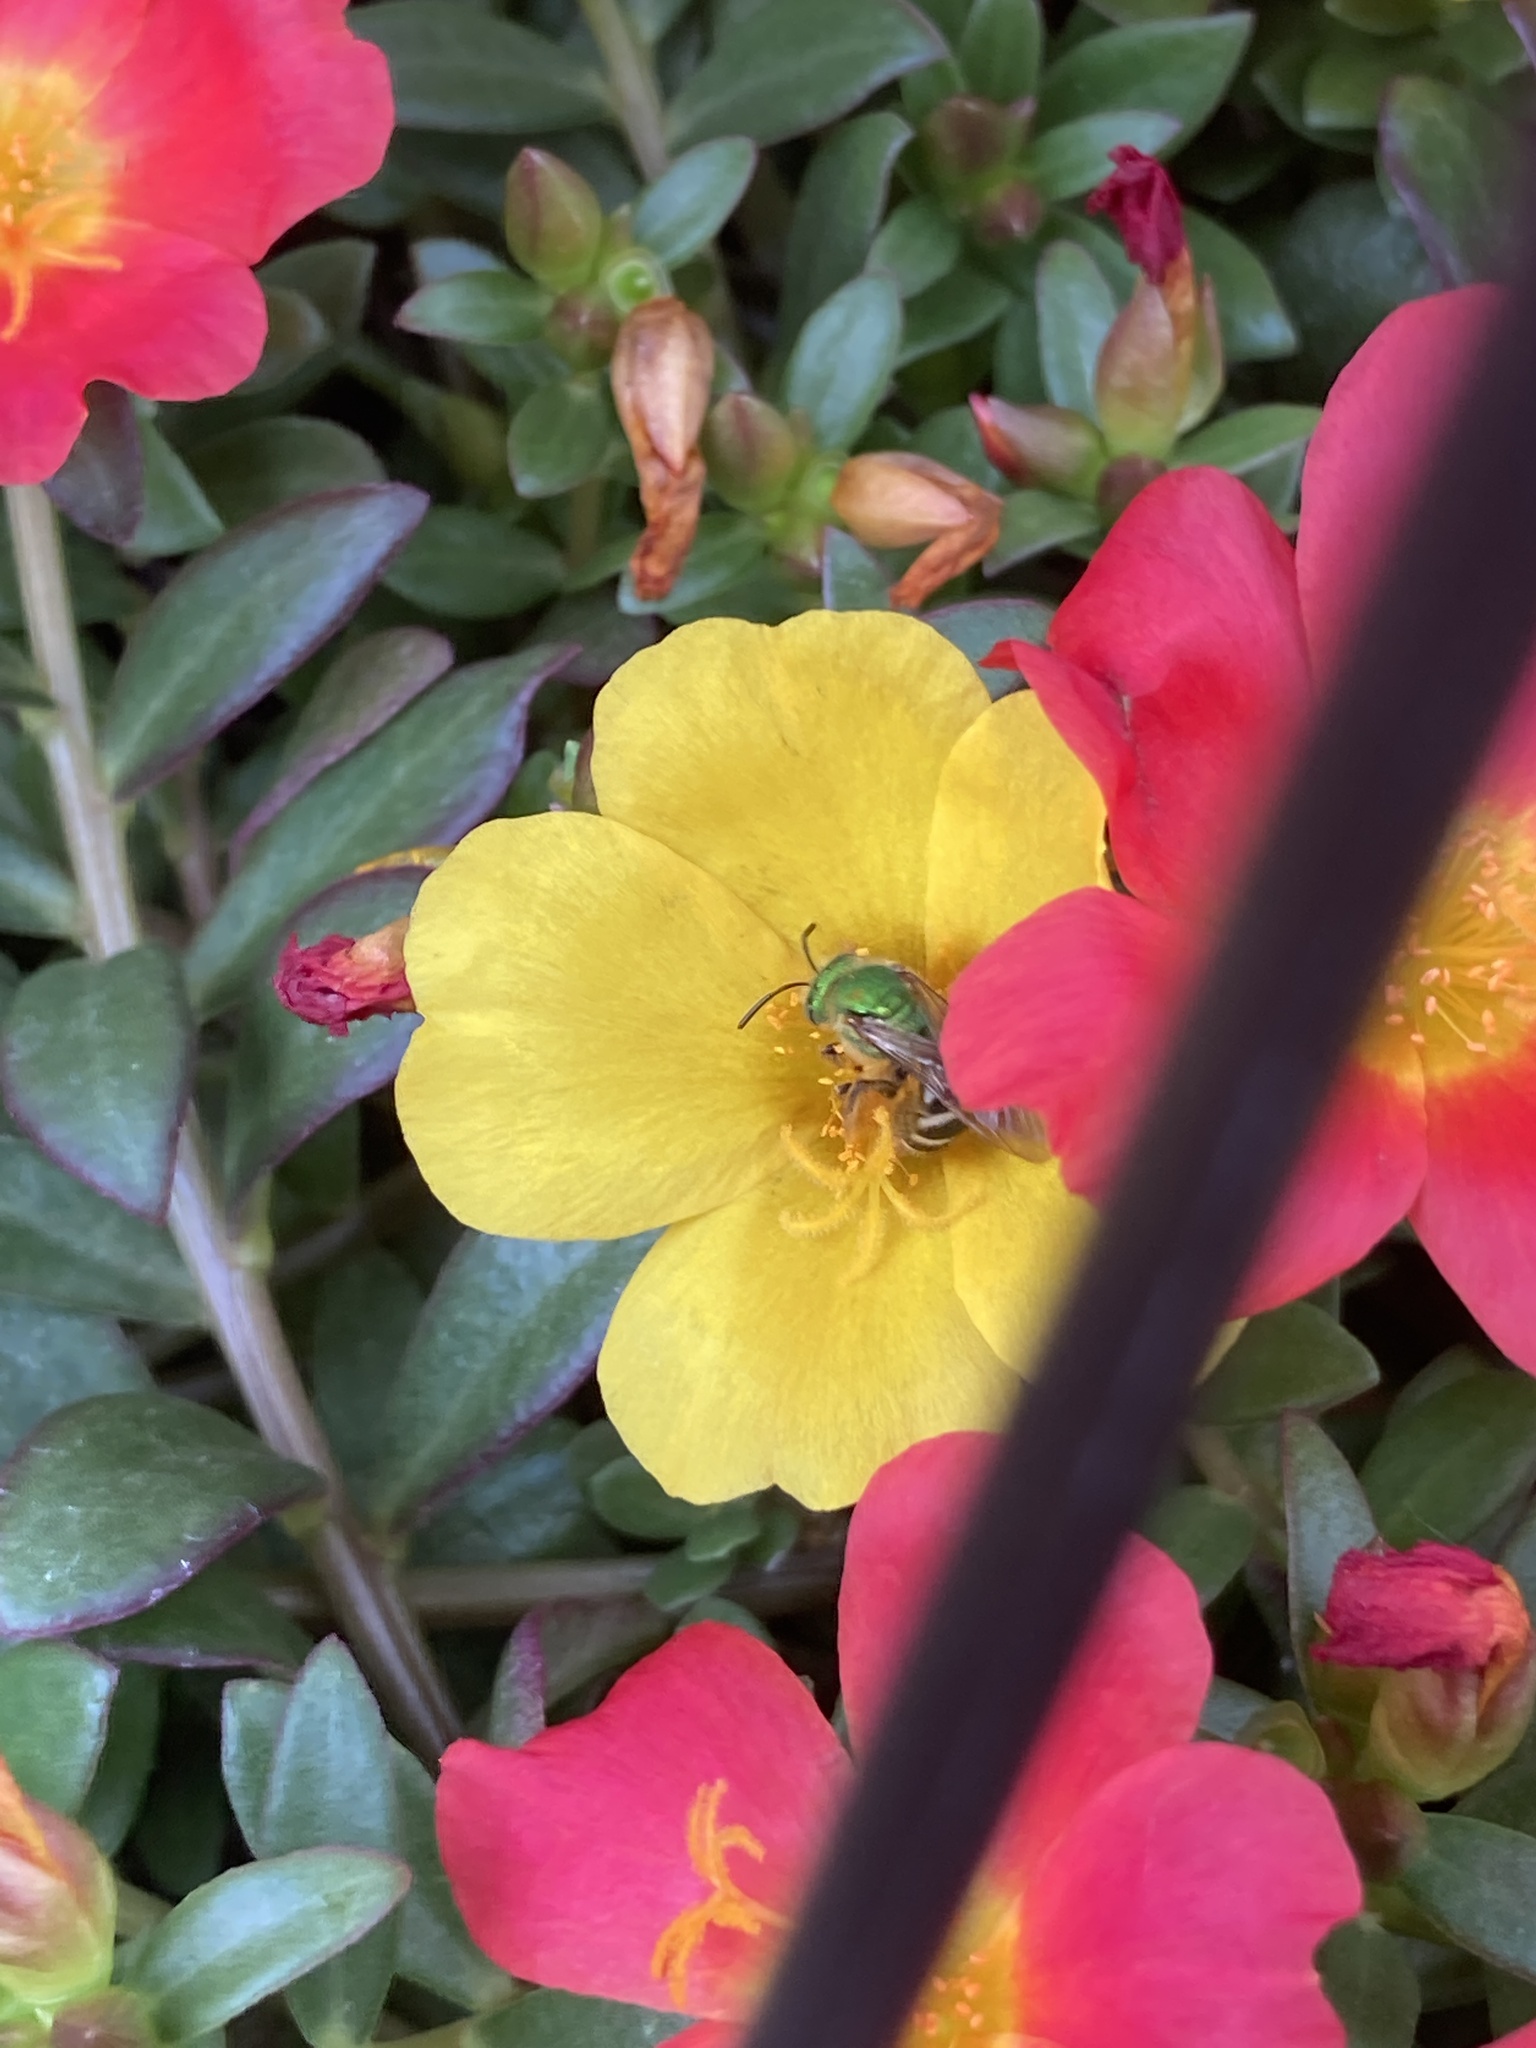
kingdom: Animalia
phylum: Arthropoda
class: Insecta
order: Hymenoptera
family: Halictidae
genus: Agapostemon
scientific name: Agapostemon virescens
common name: Bicolored striped sweat bee
